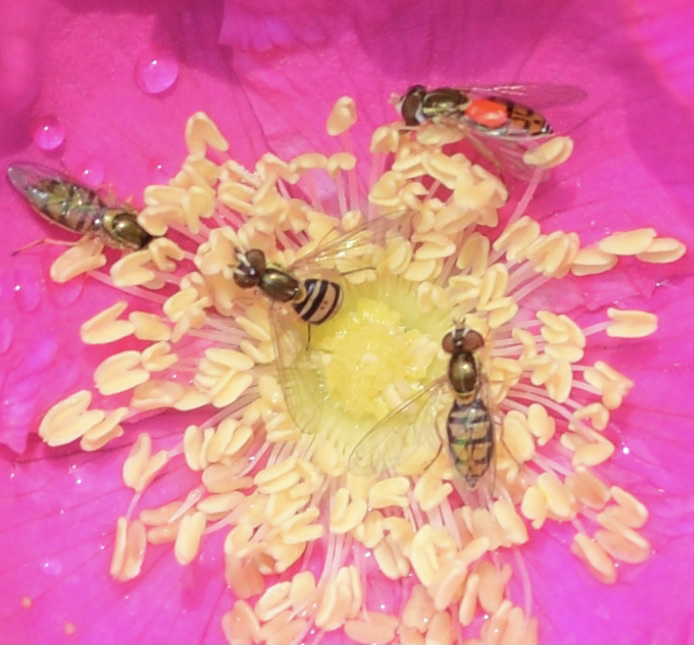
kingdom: Animalia
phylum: Arthropoda
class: Insecta
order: Diptera
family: Syrphidae
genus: Toxomerus
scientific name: Toxomerus marginatus
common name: Syrphid fly
